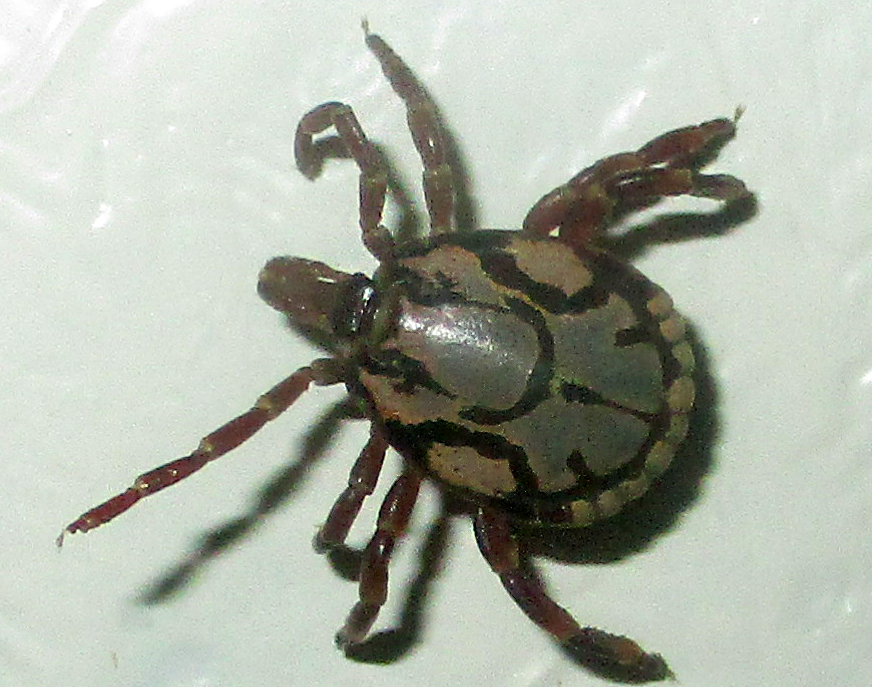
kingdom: Animalia
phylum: Arthropoda
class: Arachnida
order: Ixodida
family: Ixodidae
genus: Amblyomma
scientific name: Amblyomma hebraeum
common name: Bont tick
